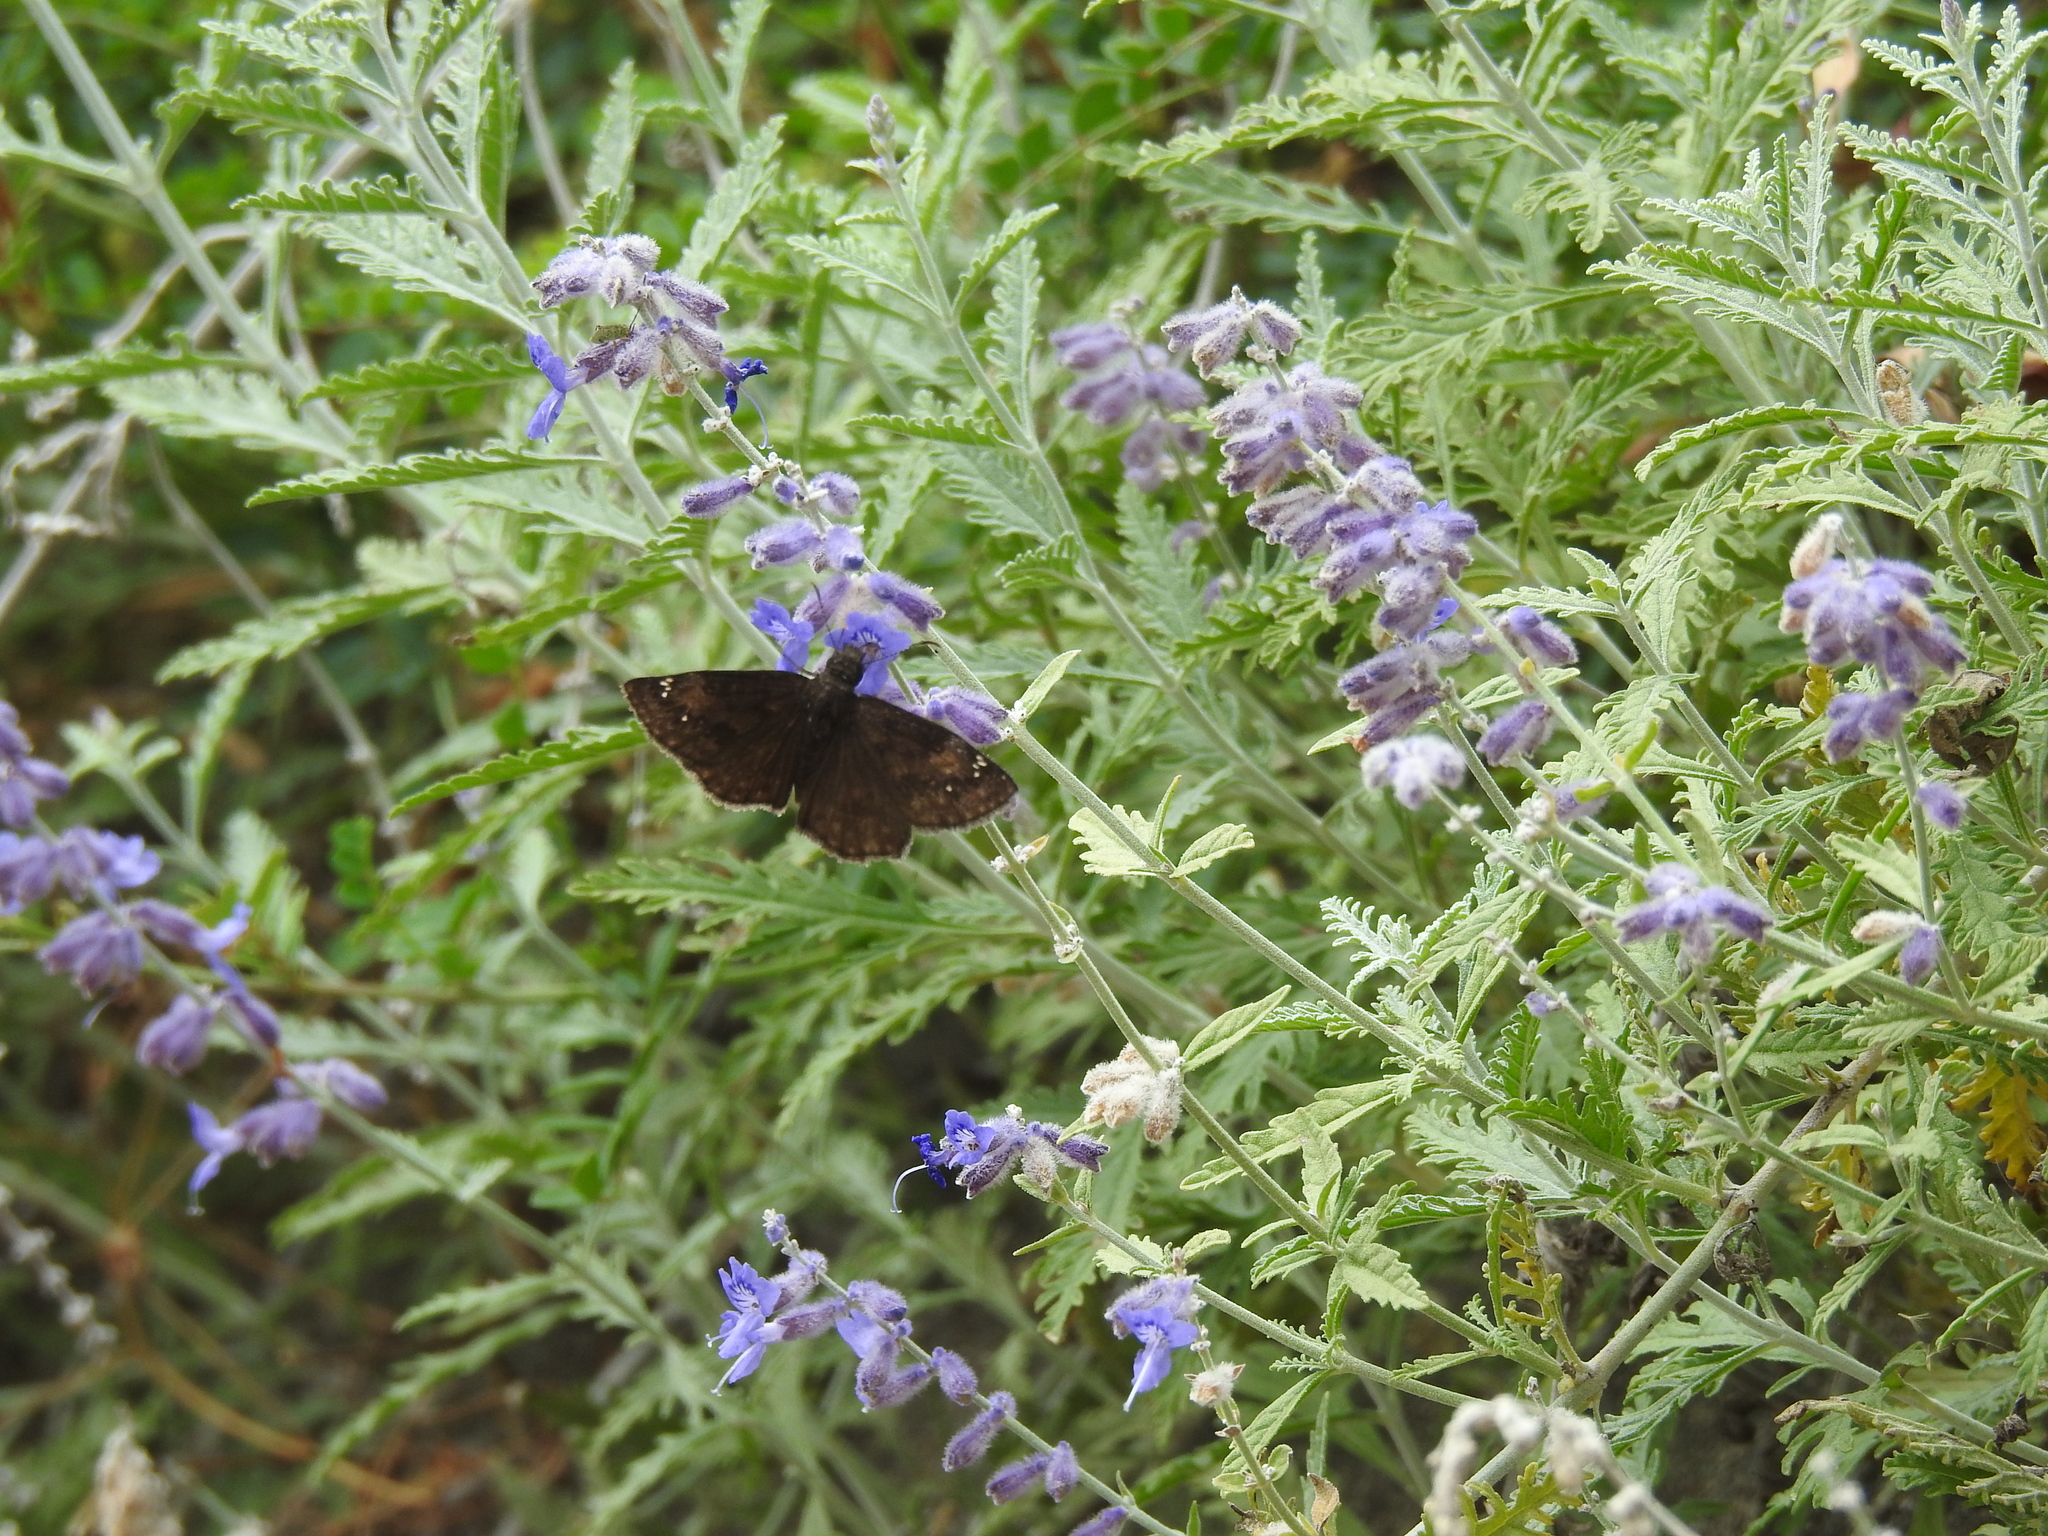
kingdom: Animalia
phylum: Arthropoda
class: Insecta
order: Lepidoptera
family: Hesperiidae
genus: Erynnis
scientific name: Erynnis baptisiae
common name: Wild indigo duskywing
